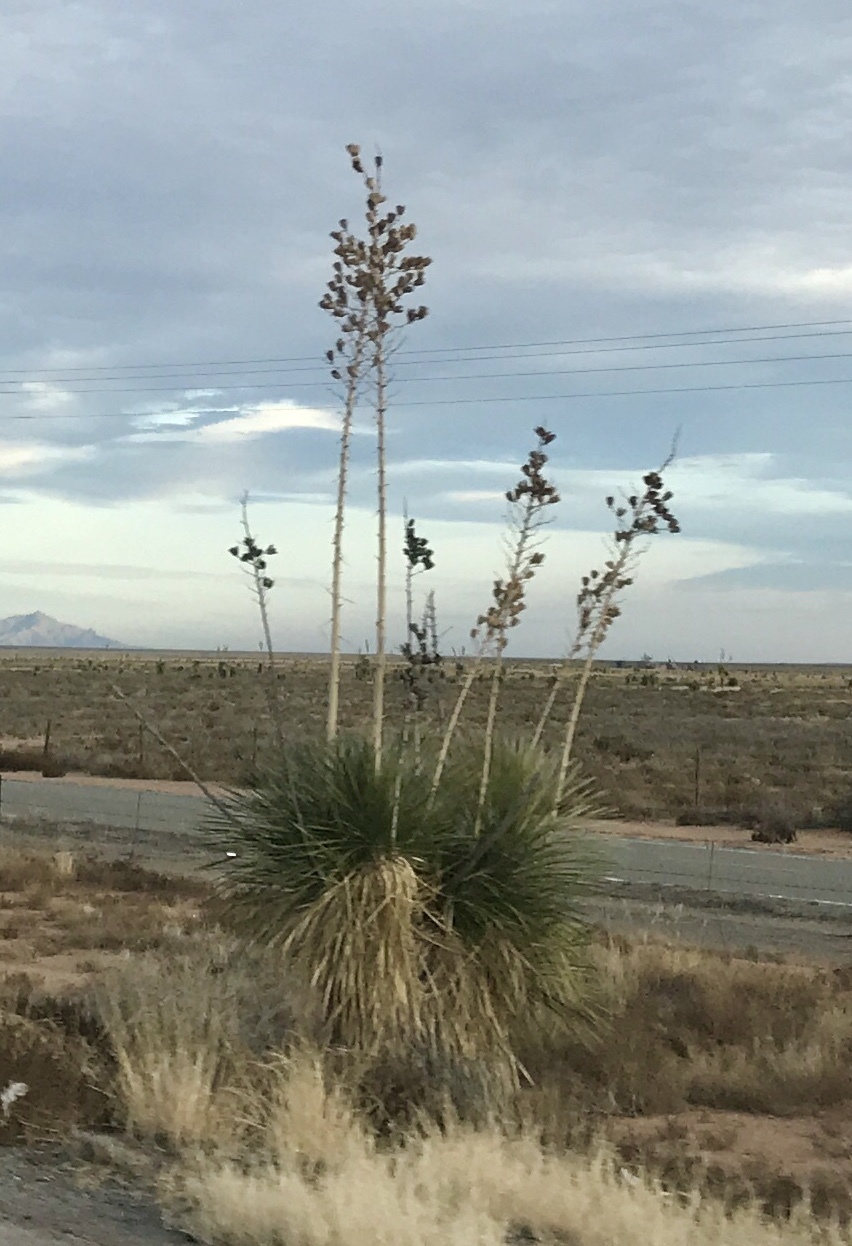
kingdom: Plantae
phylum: Tracheophyta
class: Liliopsida
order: Asparagales
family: Asparagaceae
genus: Yucca
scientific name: Yucca elata
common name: Palmella
